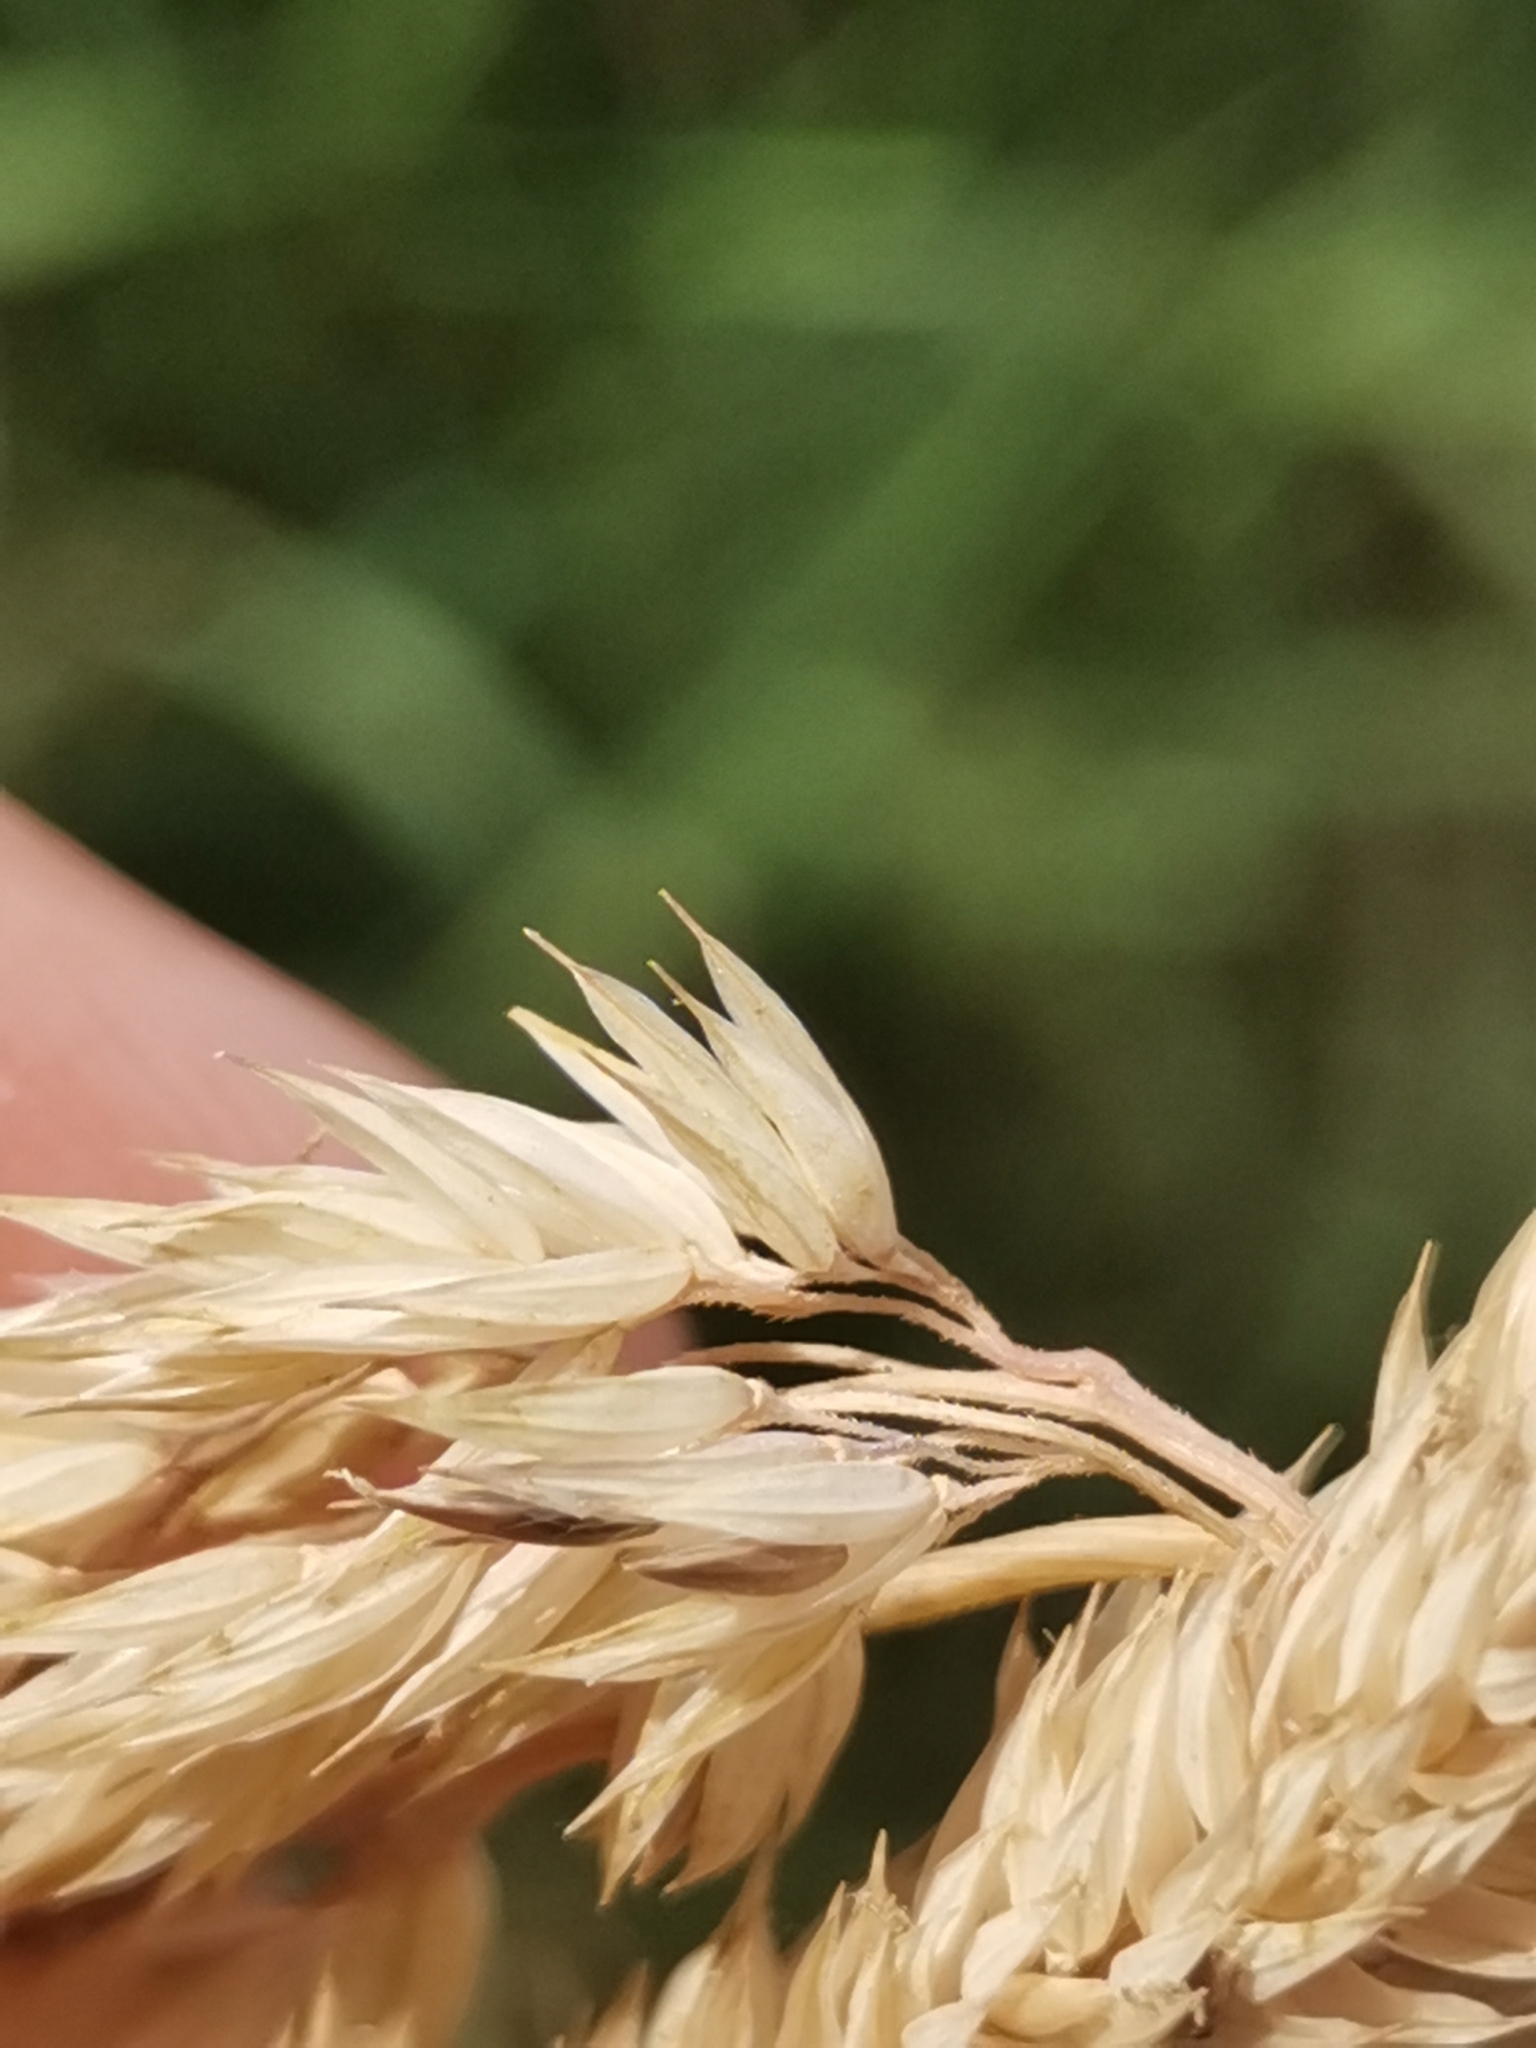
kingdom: Plantae
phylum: Tracheophyta
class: Liliopsida
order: Poales
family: Poaceae
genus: Phalaris
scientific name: Phalaris arundinacea
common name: Reed canary-grass
